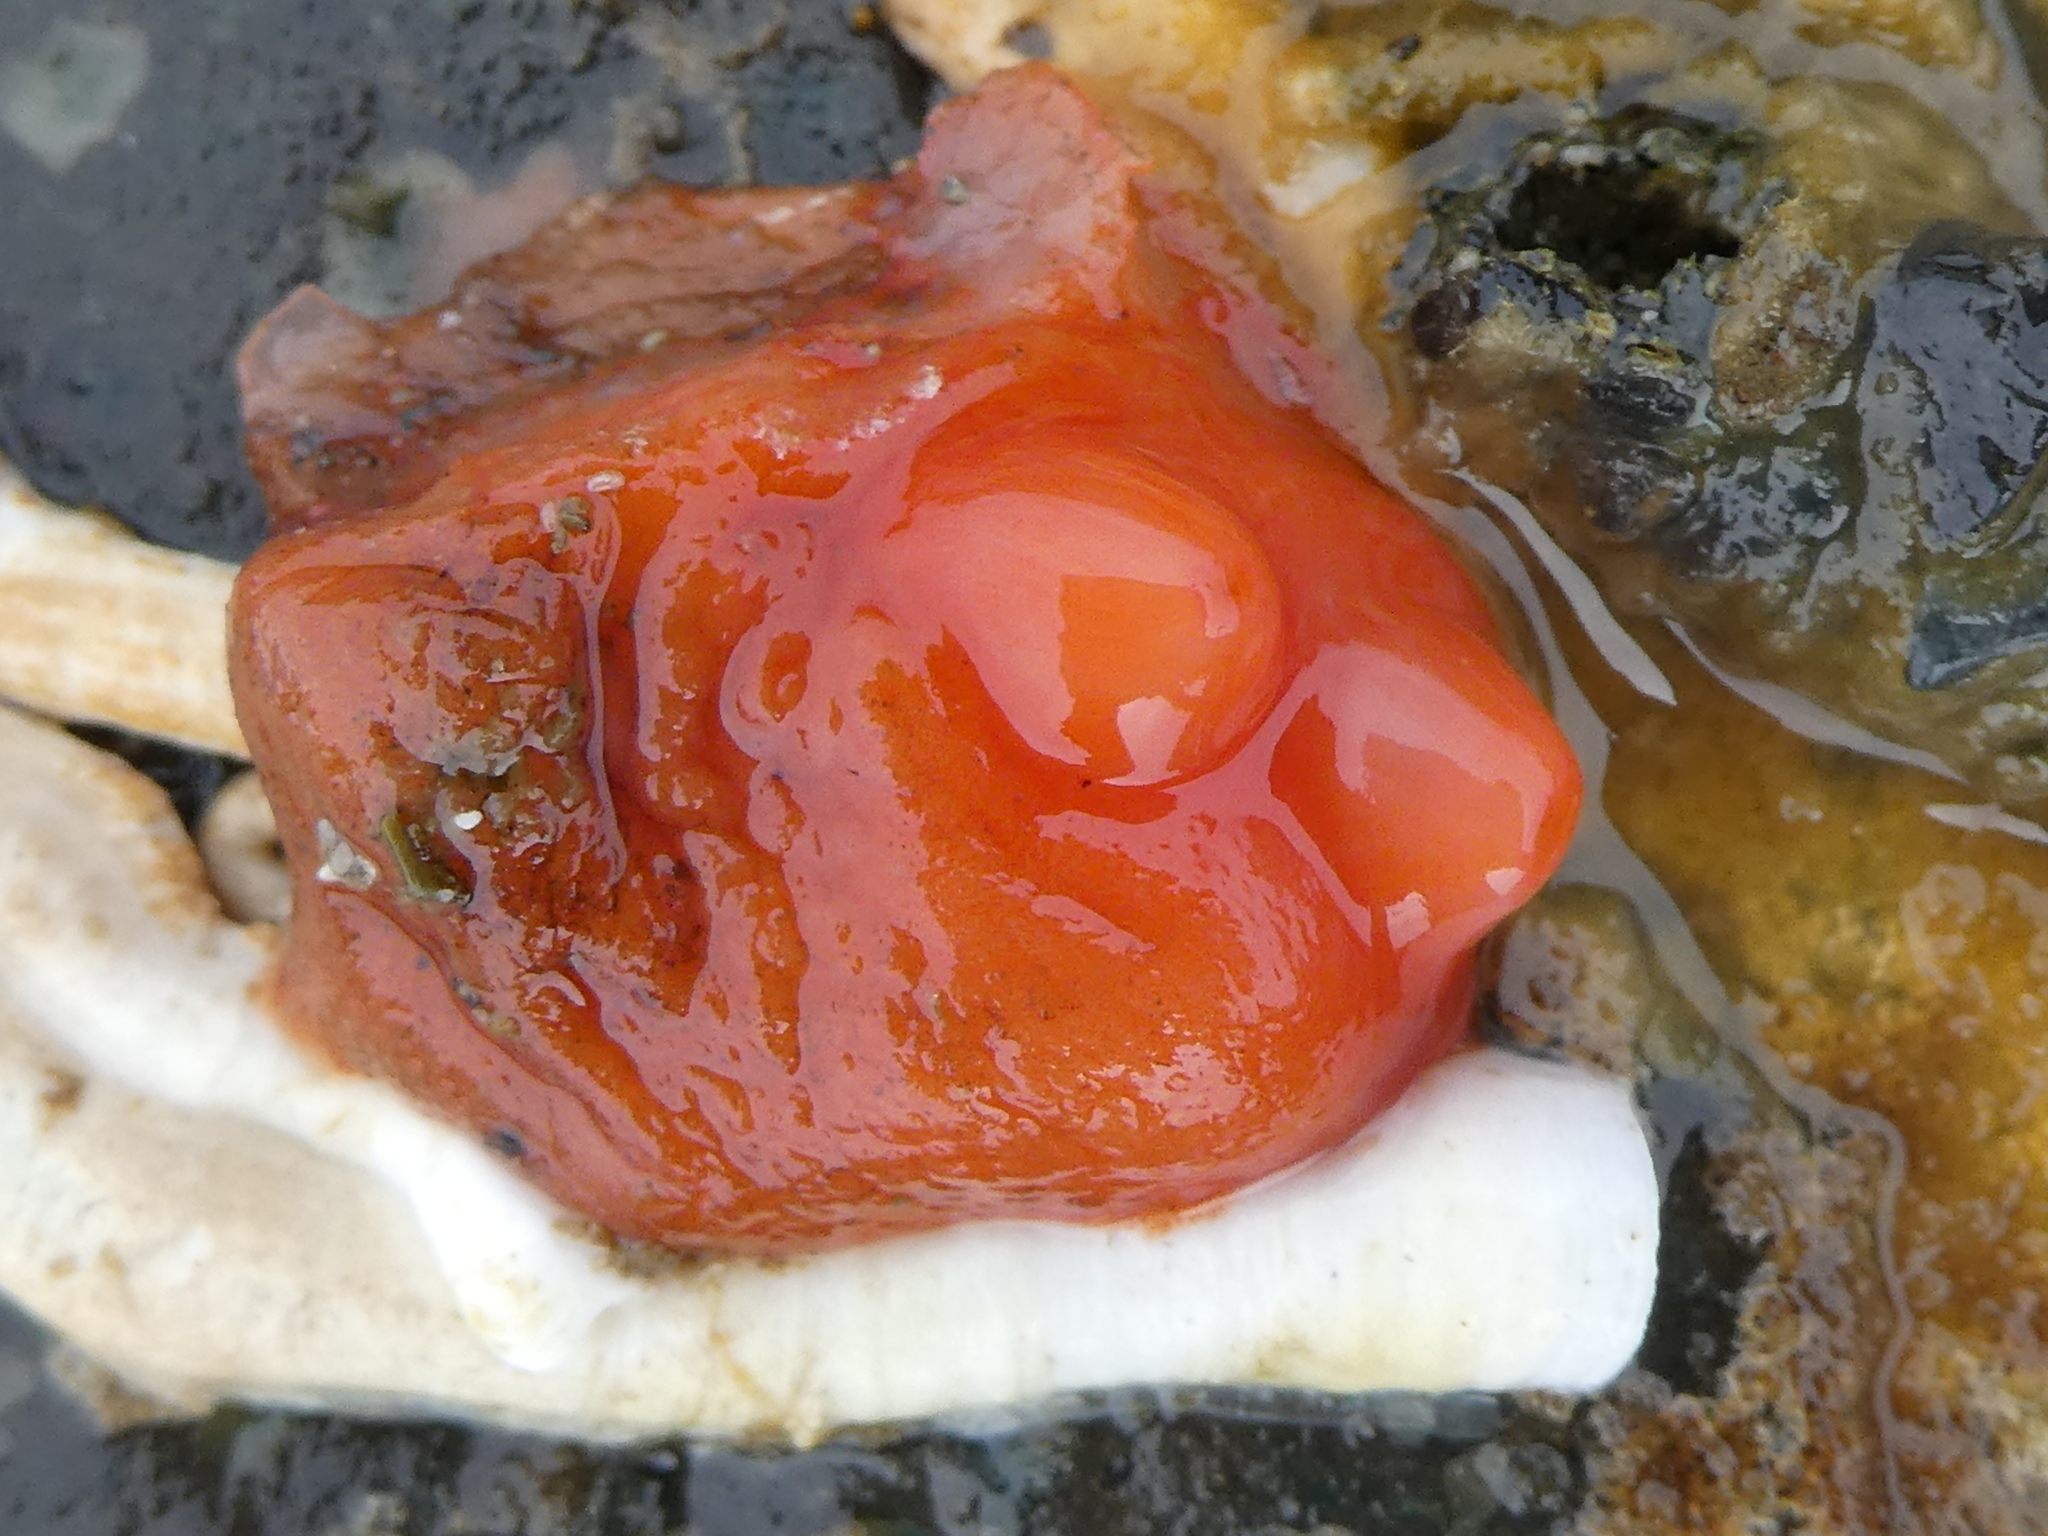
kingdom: Animalia
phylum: Chordata
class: Ascidiacea
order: Stolidobranchia
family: Styelidae
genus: Cnemidocarpa
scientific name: Cnemidocarpa finmarkiensis
